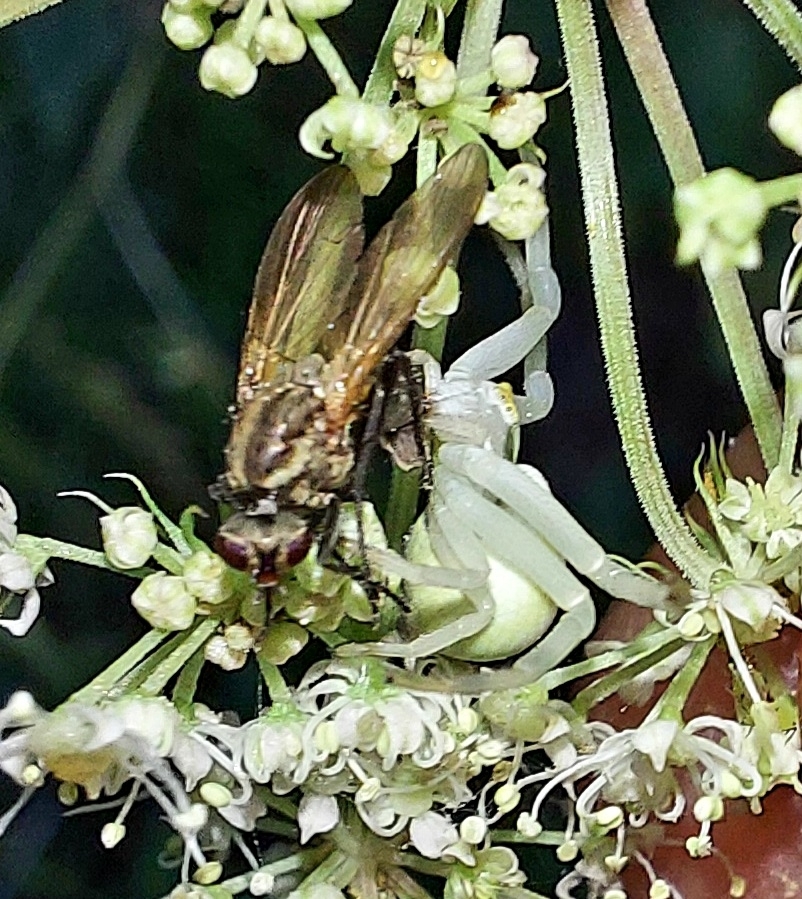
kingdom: Animalia
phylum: Arthropoda
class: Arachnida
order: Araneae
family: Thomisidae
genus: Misumena
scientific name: Misumena vatia
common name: Goldenrod crab spider
